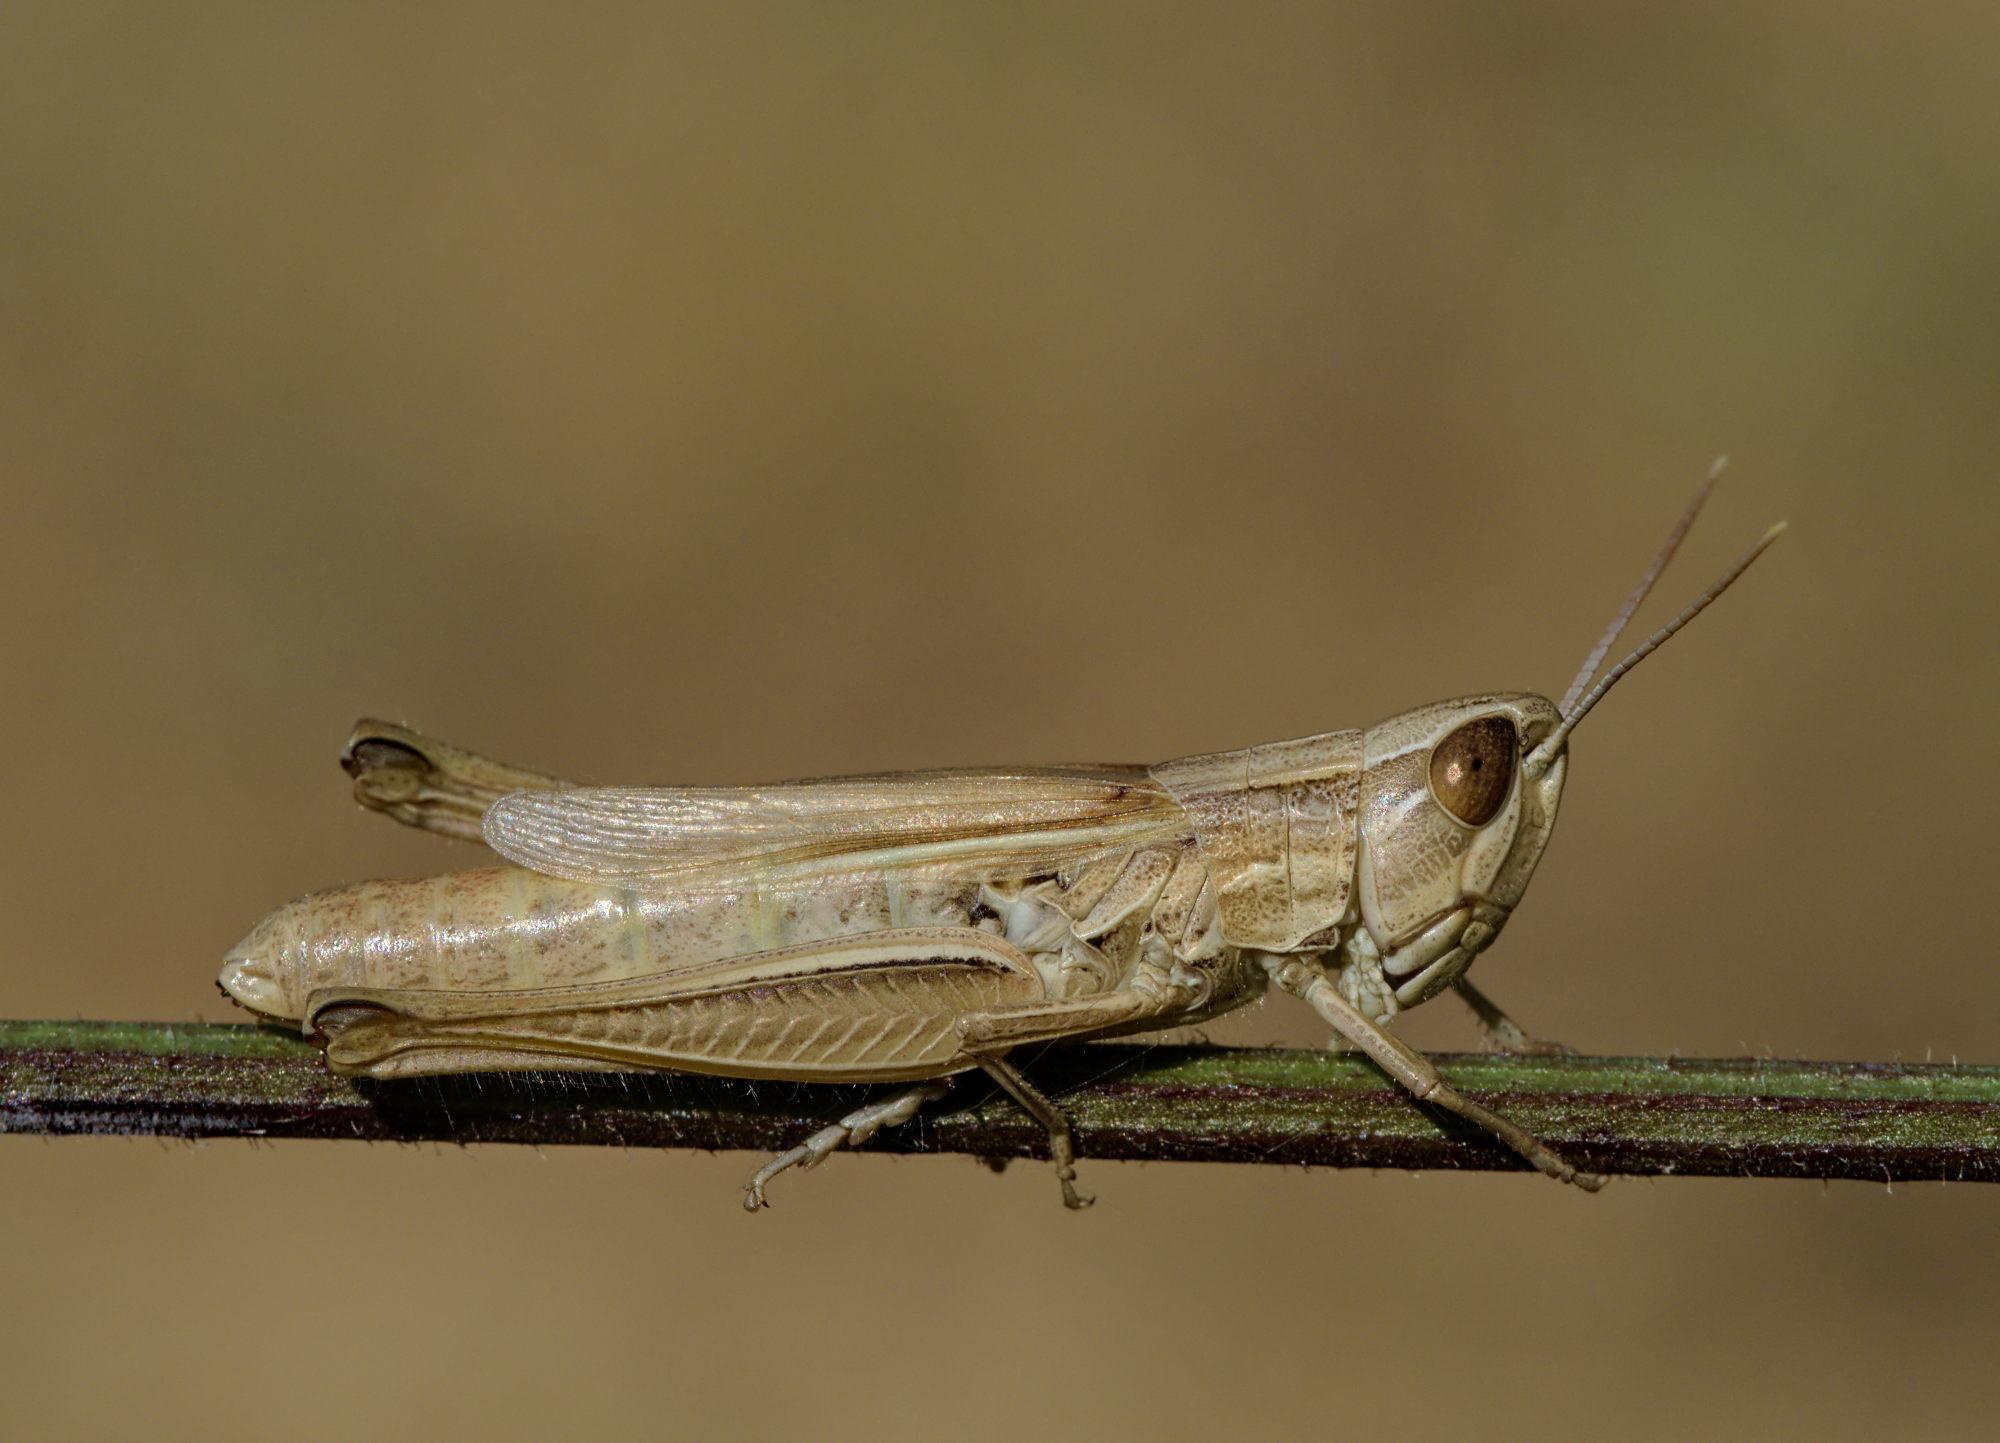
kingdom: Animalia
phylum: Arthropoda
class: Insecta
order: Orthoptera
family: Acrididae
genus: Euchorthippus
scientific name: Euchorthippus elegantulus
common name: Elegant straw grasshopper
